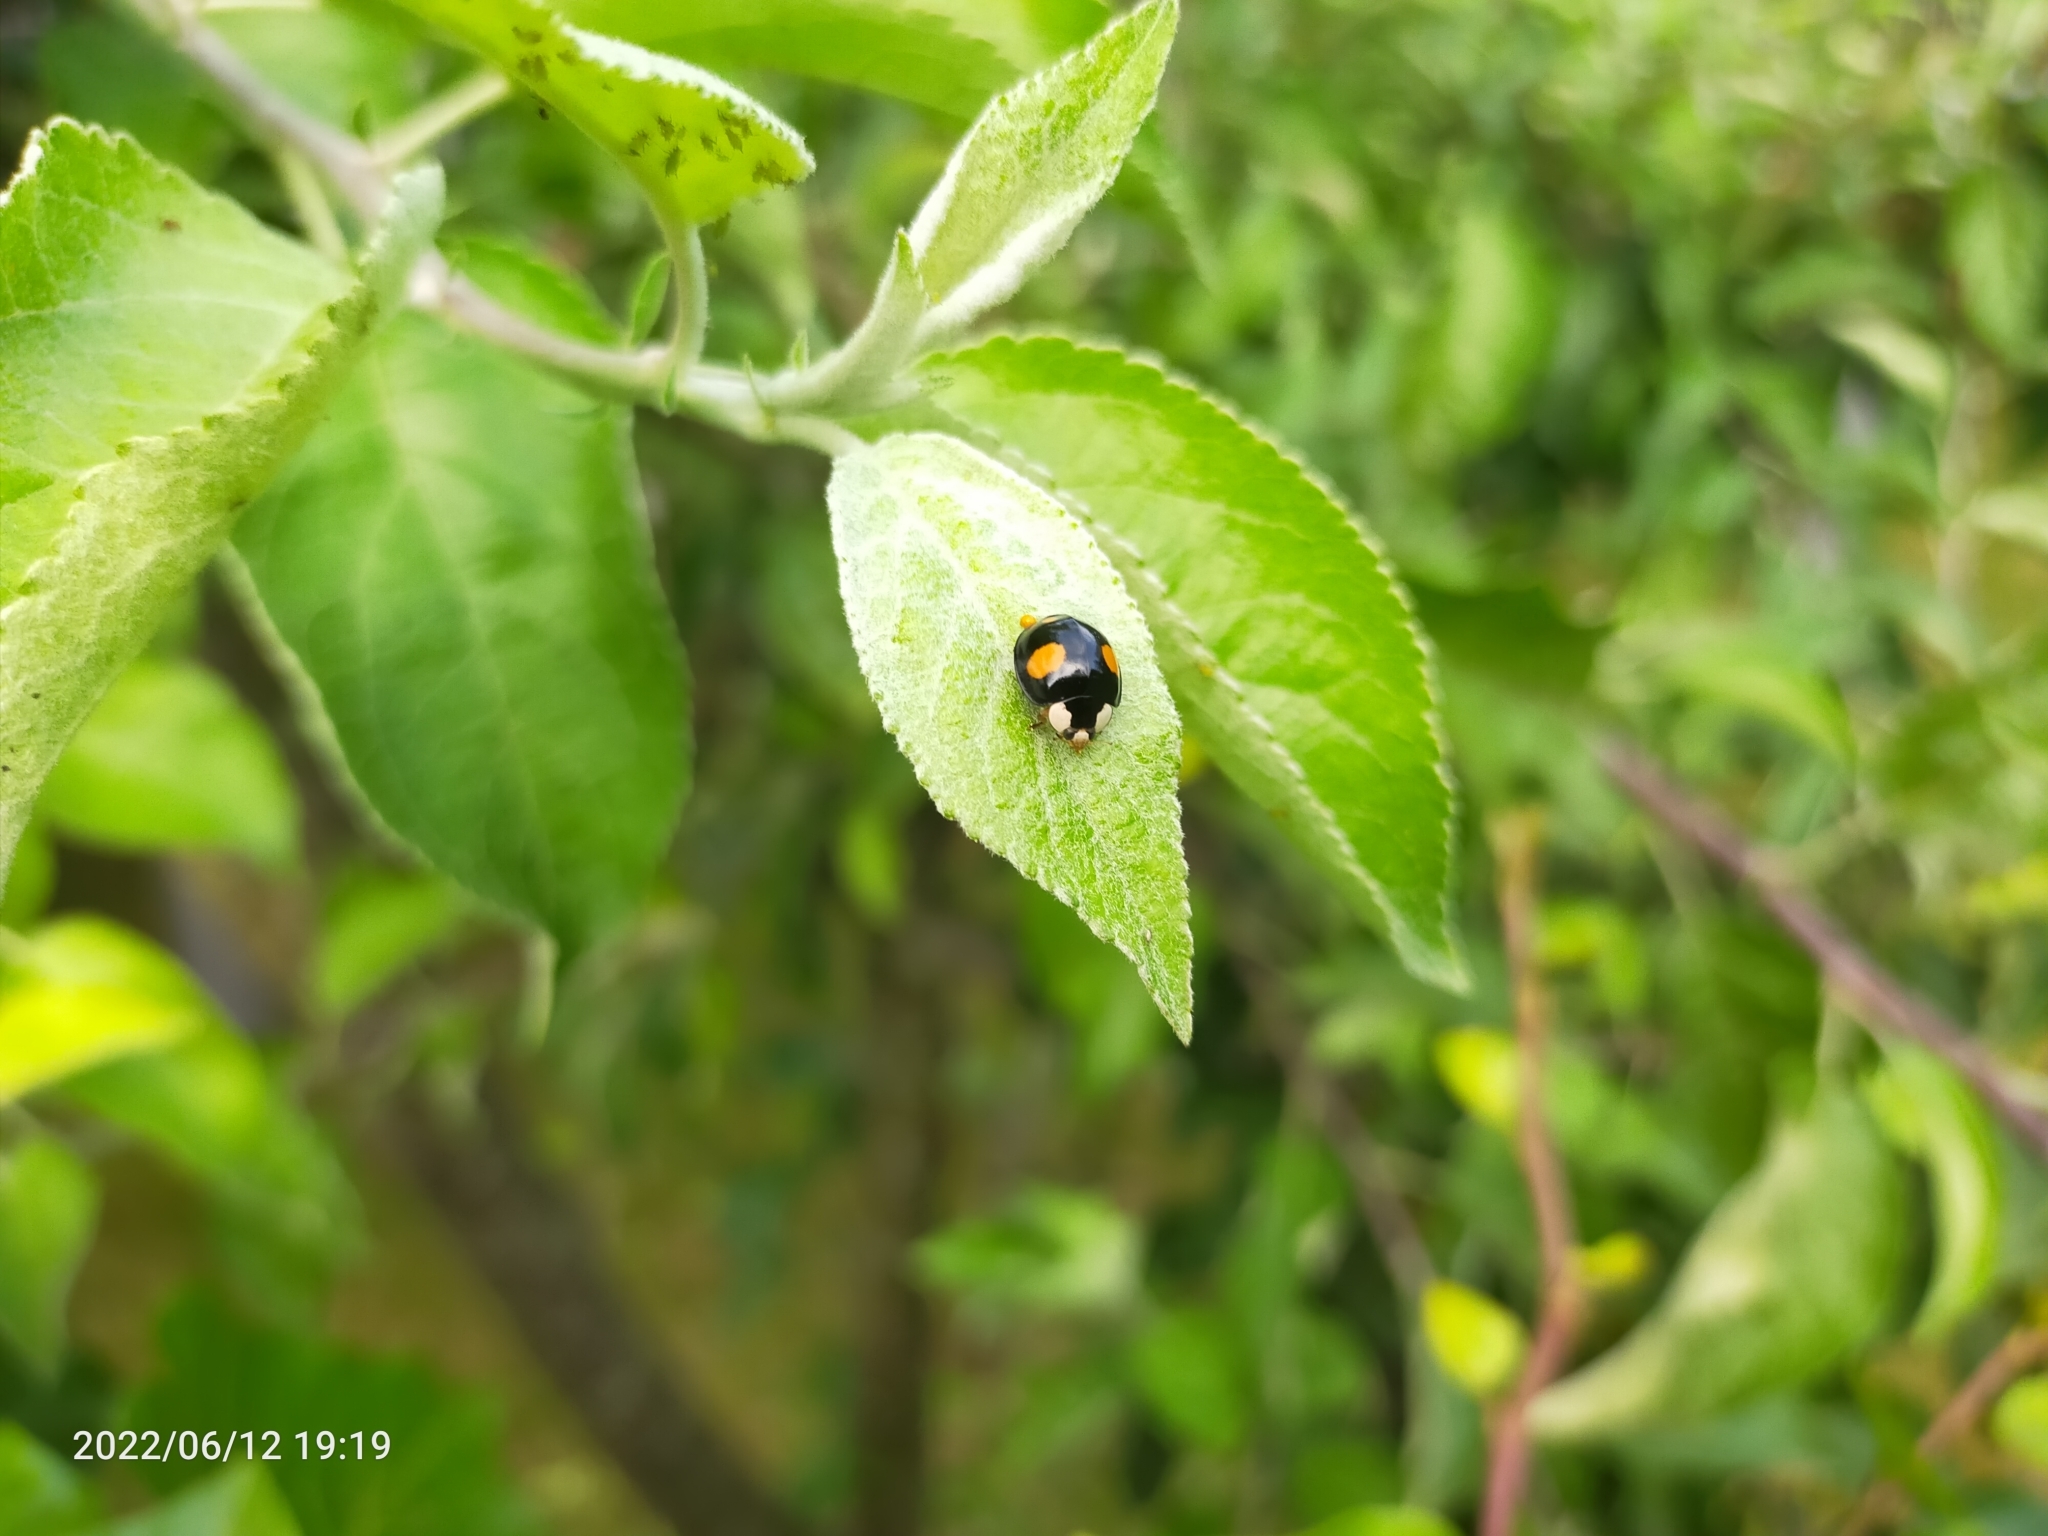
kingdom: Animalia
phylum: Arthropoda
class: Insecta
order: Coleoptera
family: Coccinellidae
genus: Harmonia
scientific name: Harmonia axyridis
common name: Harlequin ladybird
